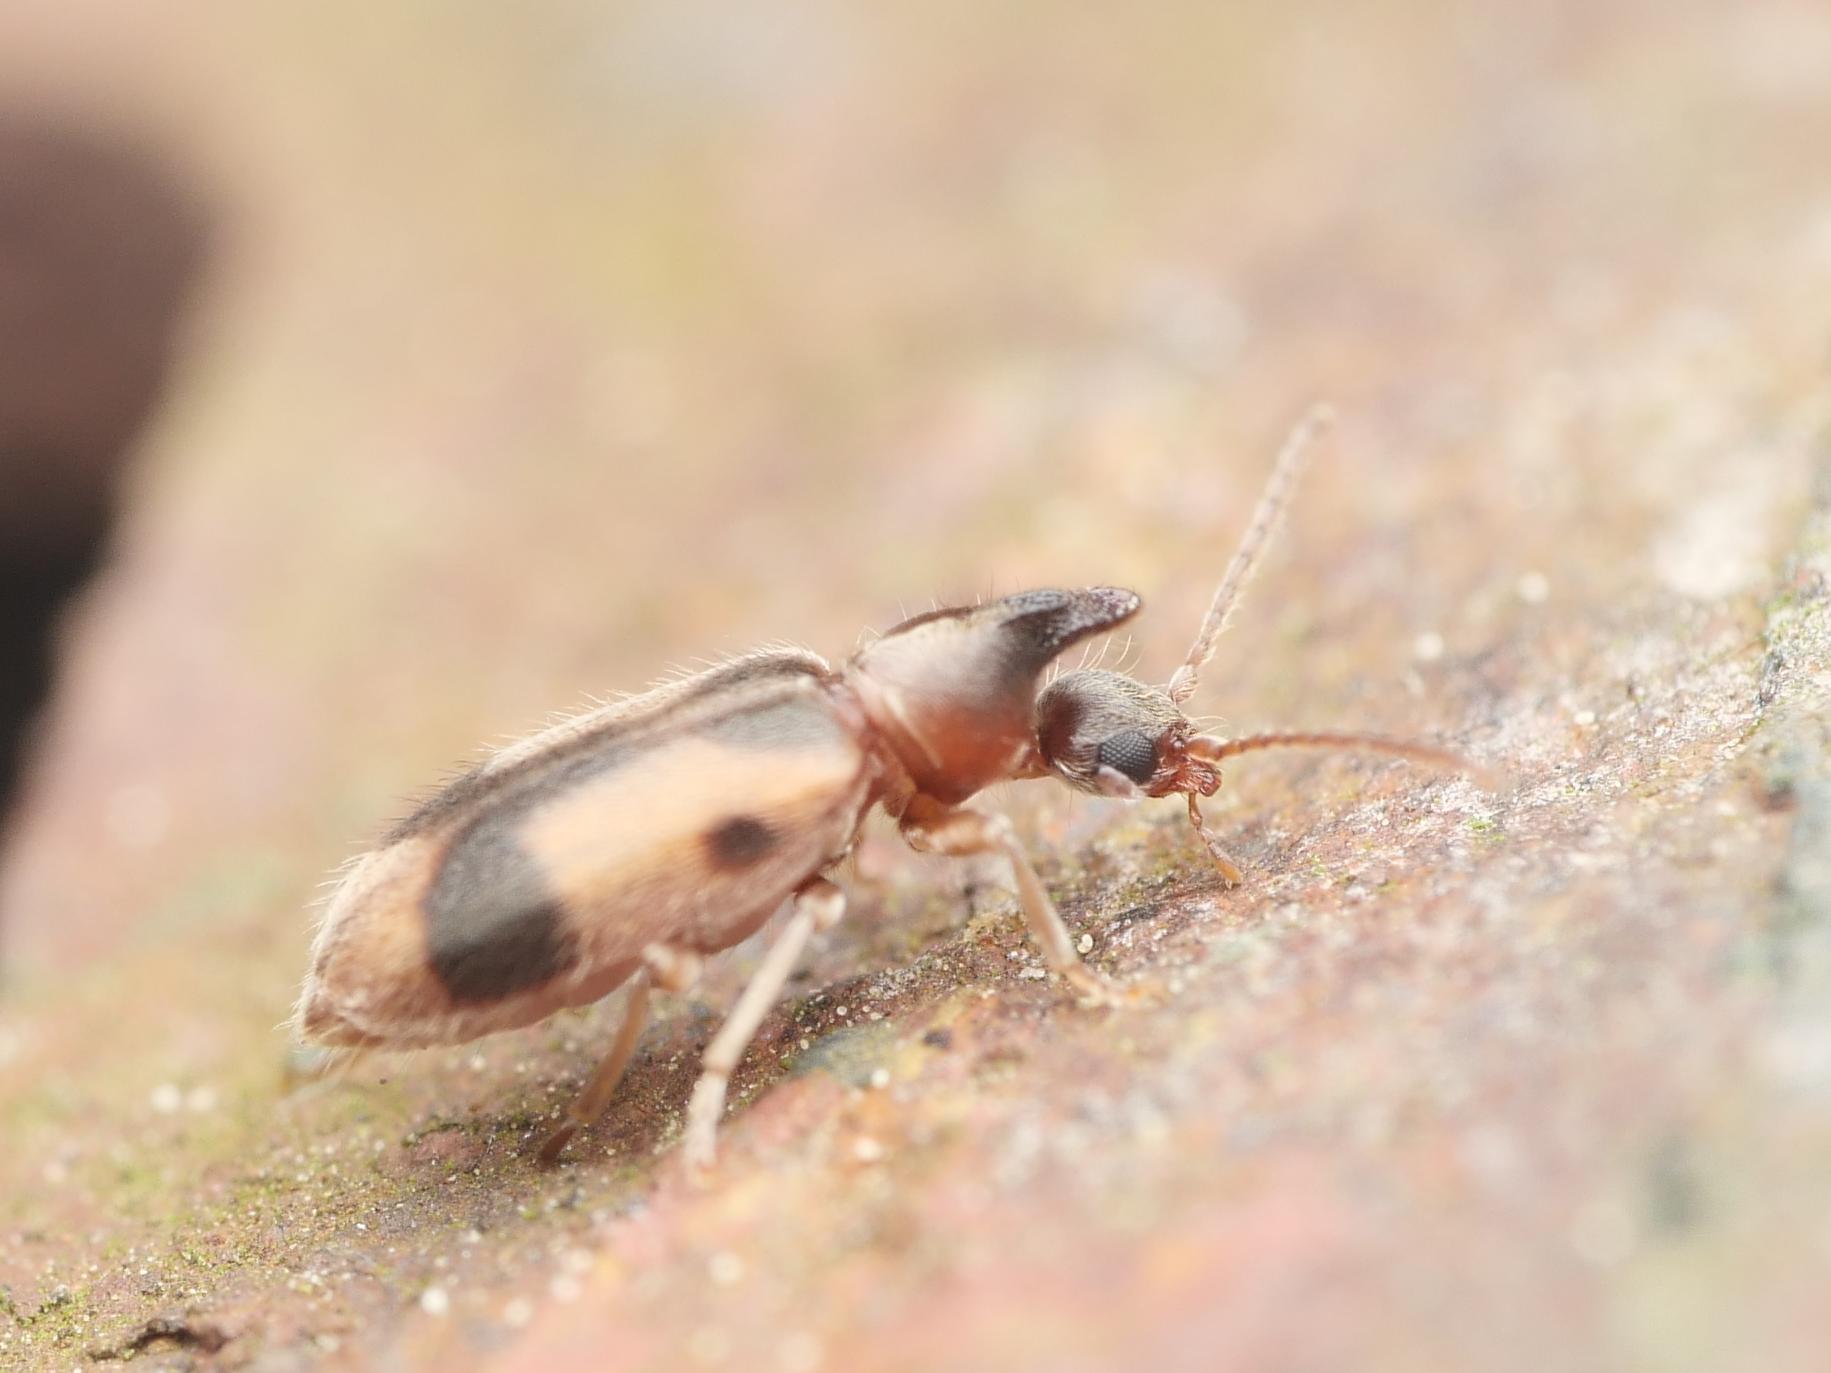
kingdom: Animalia
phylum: Arthropoda
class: Insecta
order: Coleoptera
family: Anthicidae
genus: Notoxus
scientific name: Notoxus monoceros
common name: Monoceros beetle
